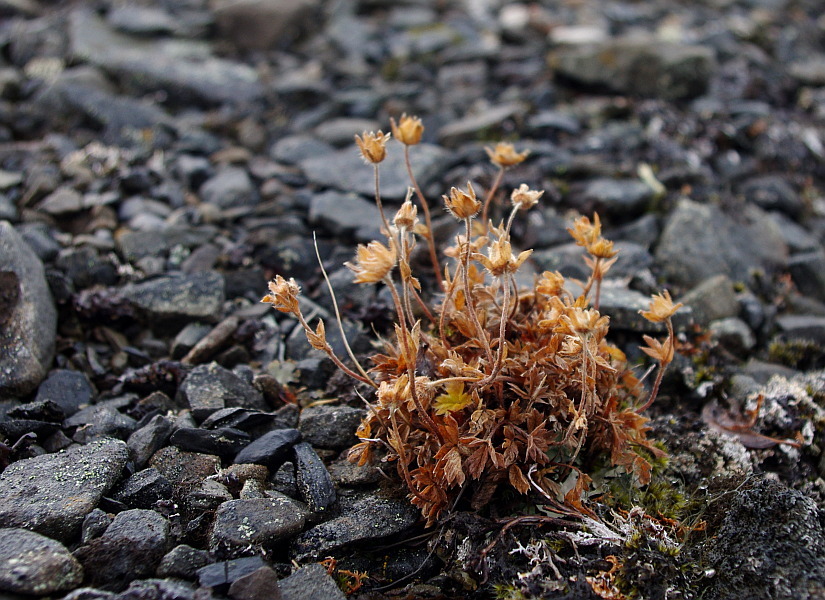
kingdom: Plantae
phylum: Tracheophyta
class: Magnoliopsida
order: Rosales
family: Rosaceae
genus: Potentilla
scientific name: Potentilla hyparctica
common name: Arctic cinquefoil
